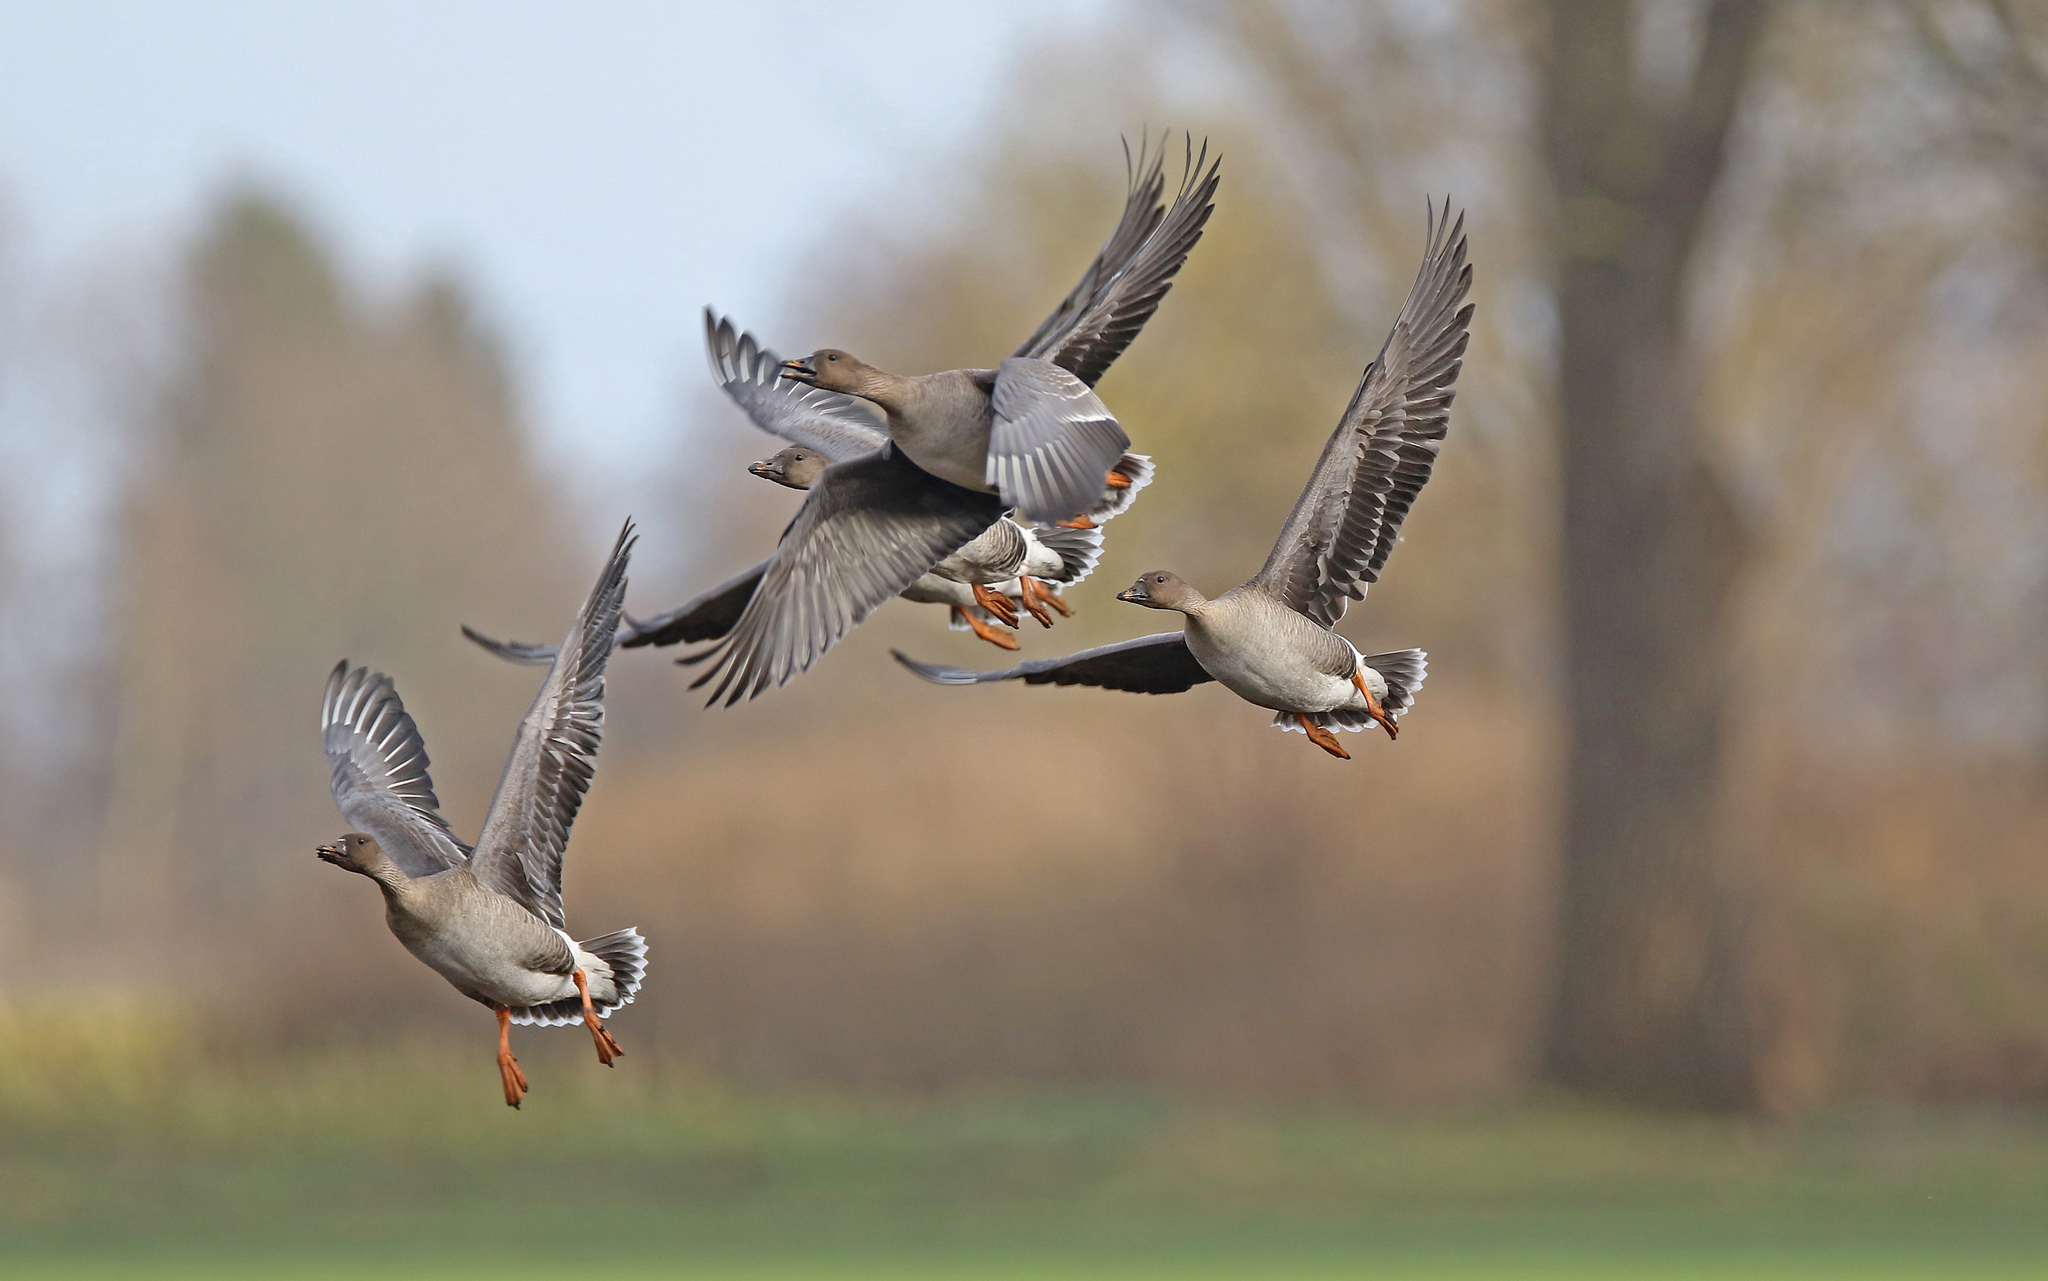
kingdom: Animalia
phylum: Chordata
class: Aves
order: Anseriformes
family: Anatidae
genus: Anser
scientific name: Anser serrirostris
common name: Tundra bean goose
